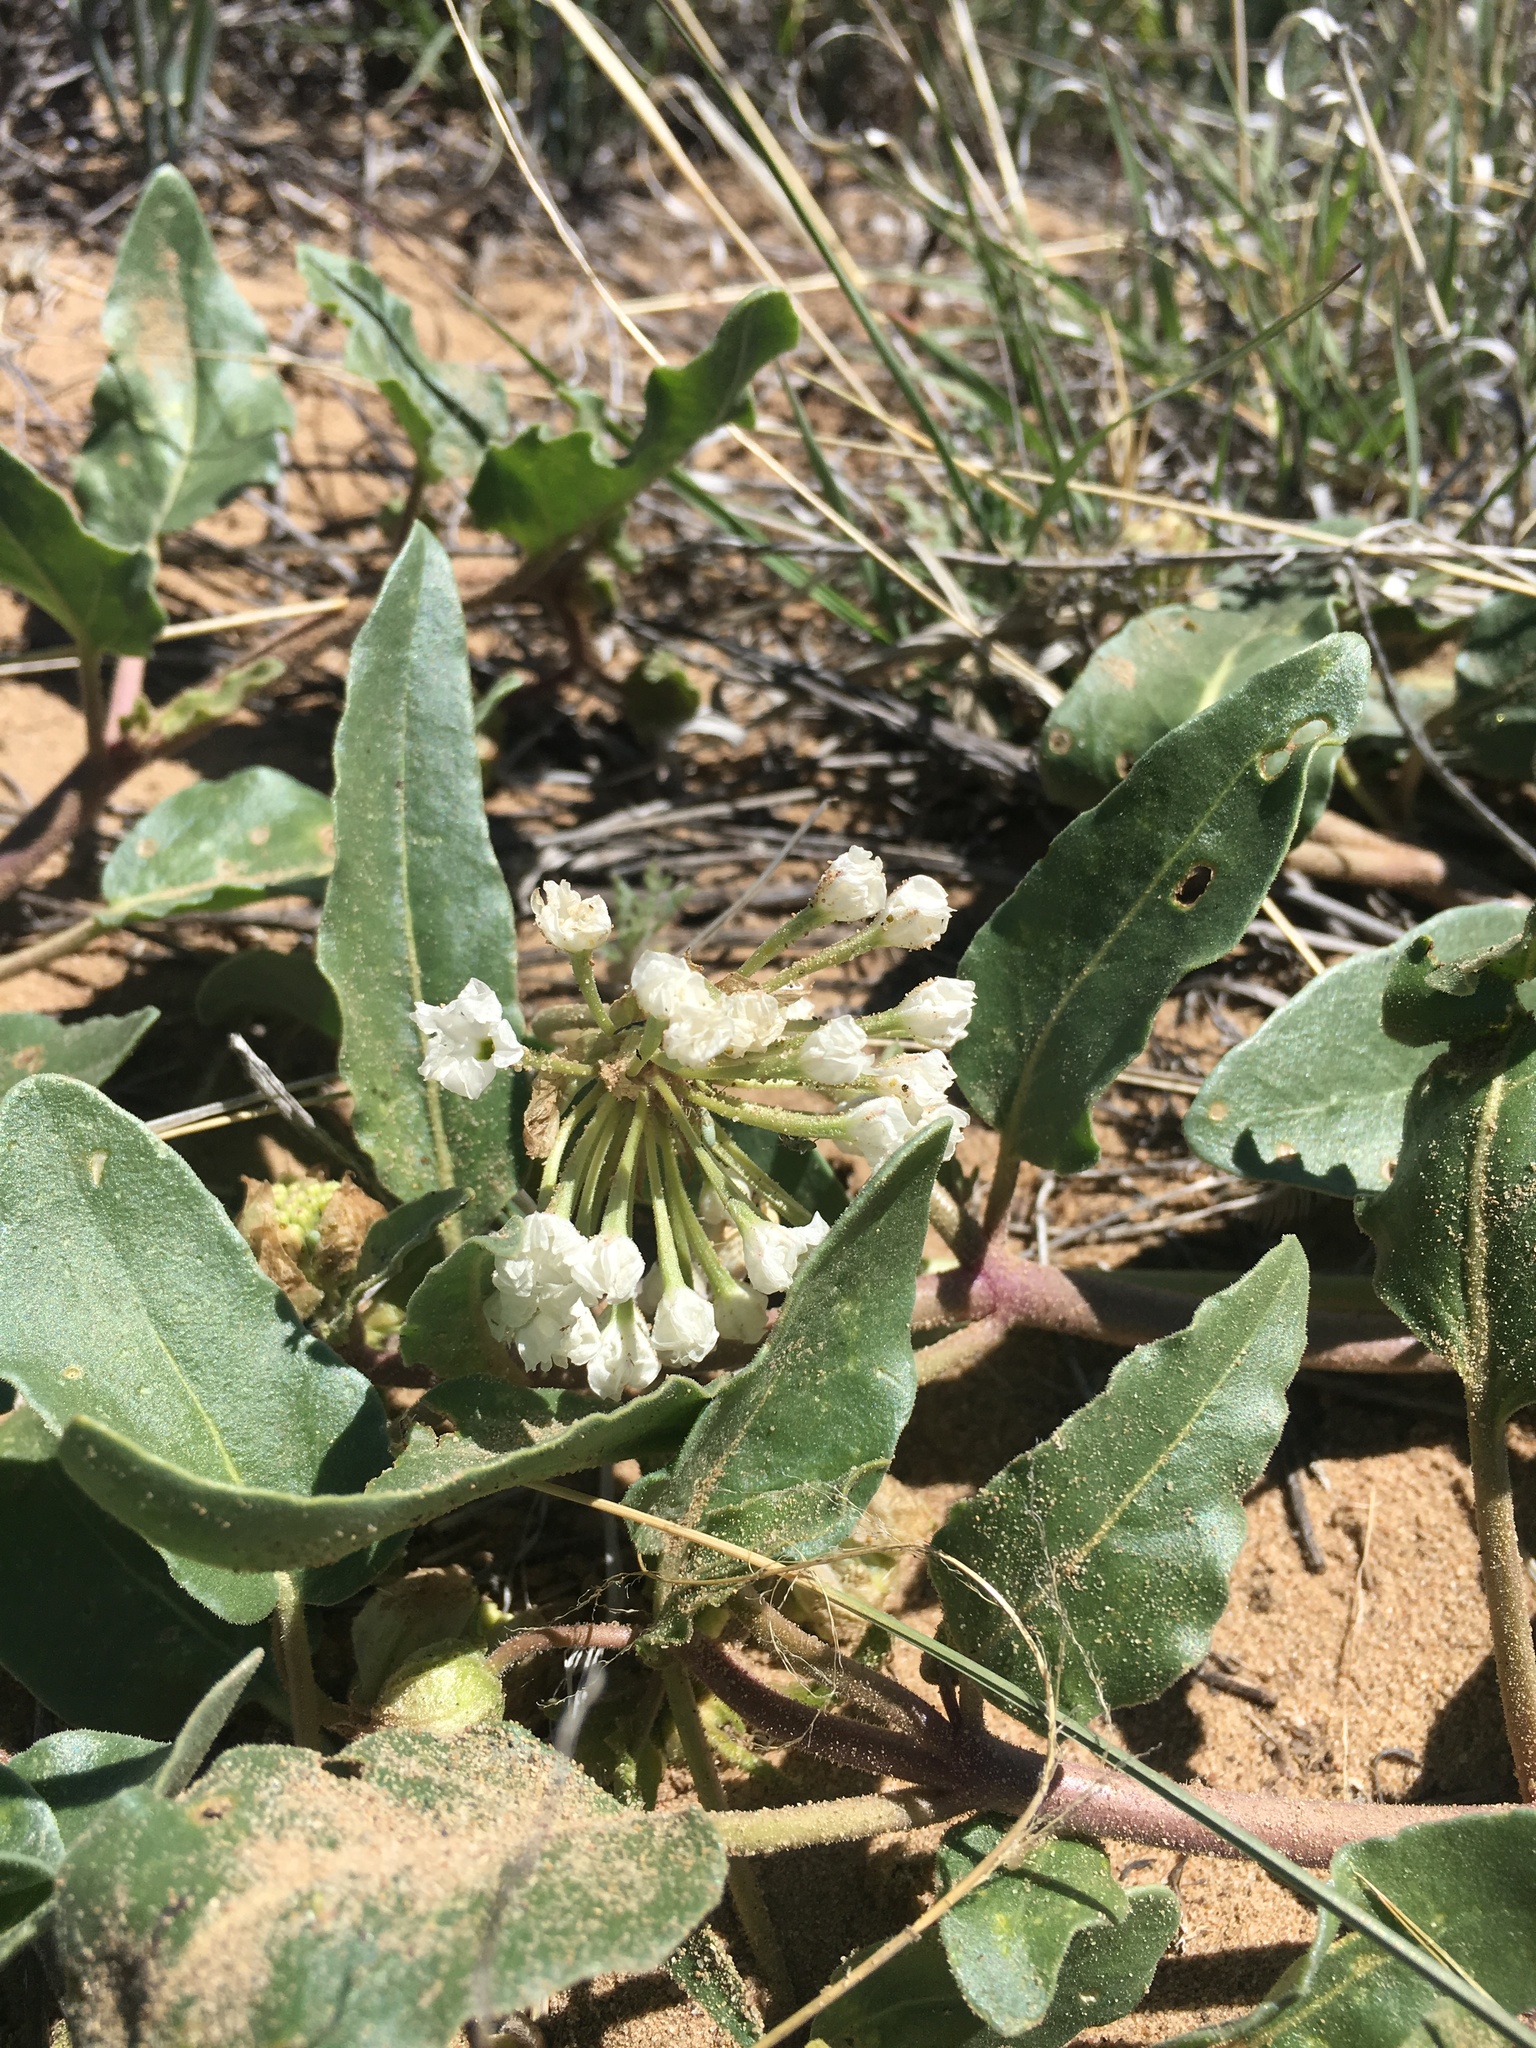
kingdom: Plantae
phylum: Tracheophyta
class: Magnoliopsida
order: Caryophyllales
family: Nyctaginaceae
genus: Abronia
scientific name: Abronia fragrans
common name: Fragrant sand-verbena
